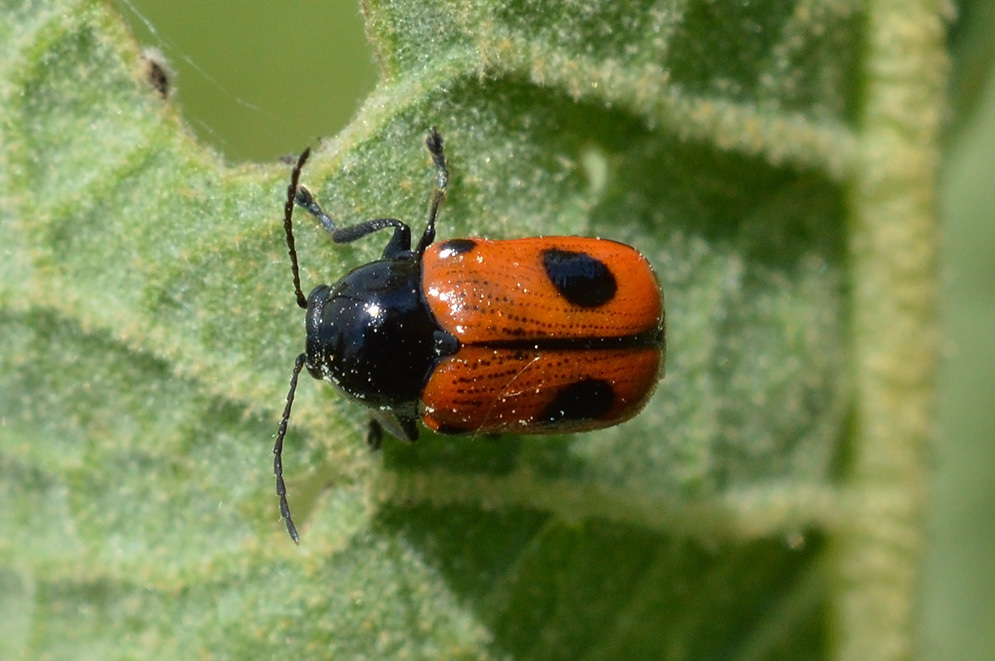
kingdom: Animalia
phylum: Arthropoda
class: Insecta
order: Coleoptera
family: Chrysomelidae
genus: Chiridopsis
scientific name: Chiridopsis bipunctata
